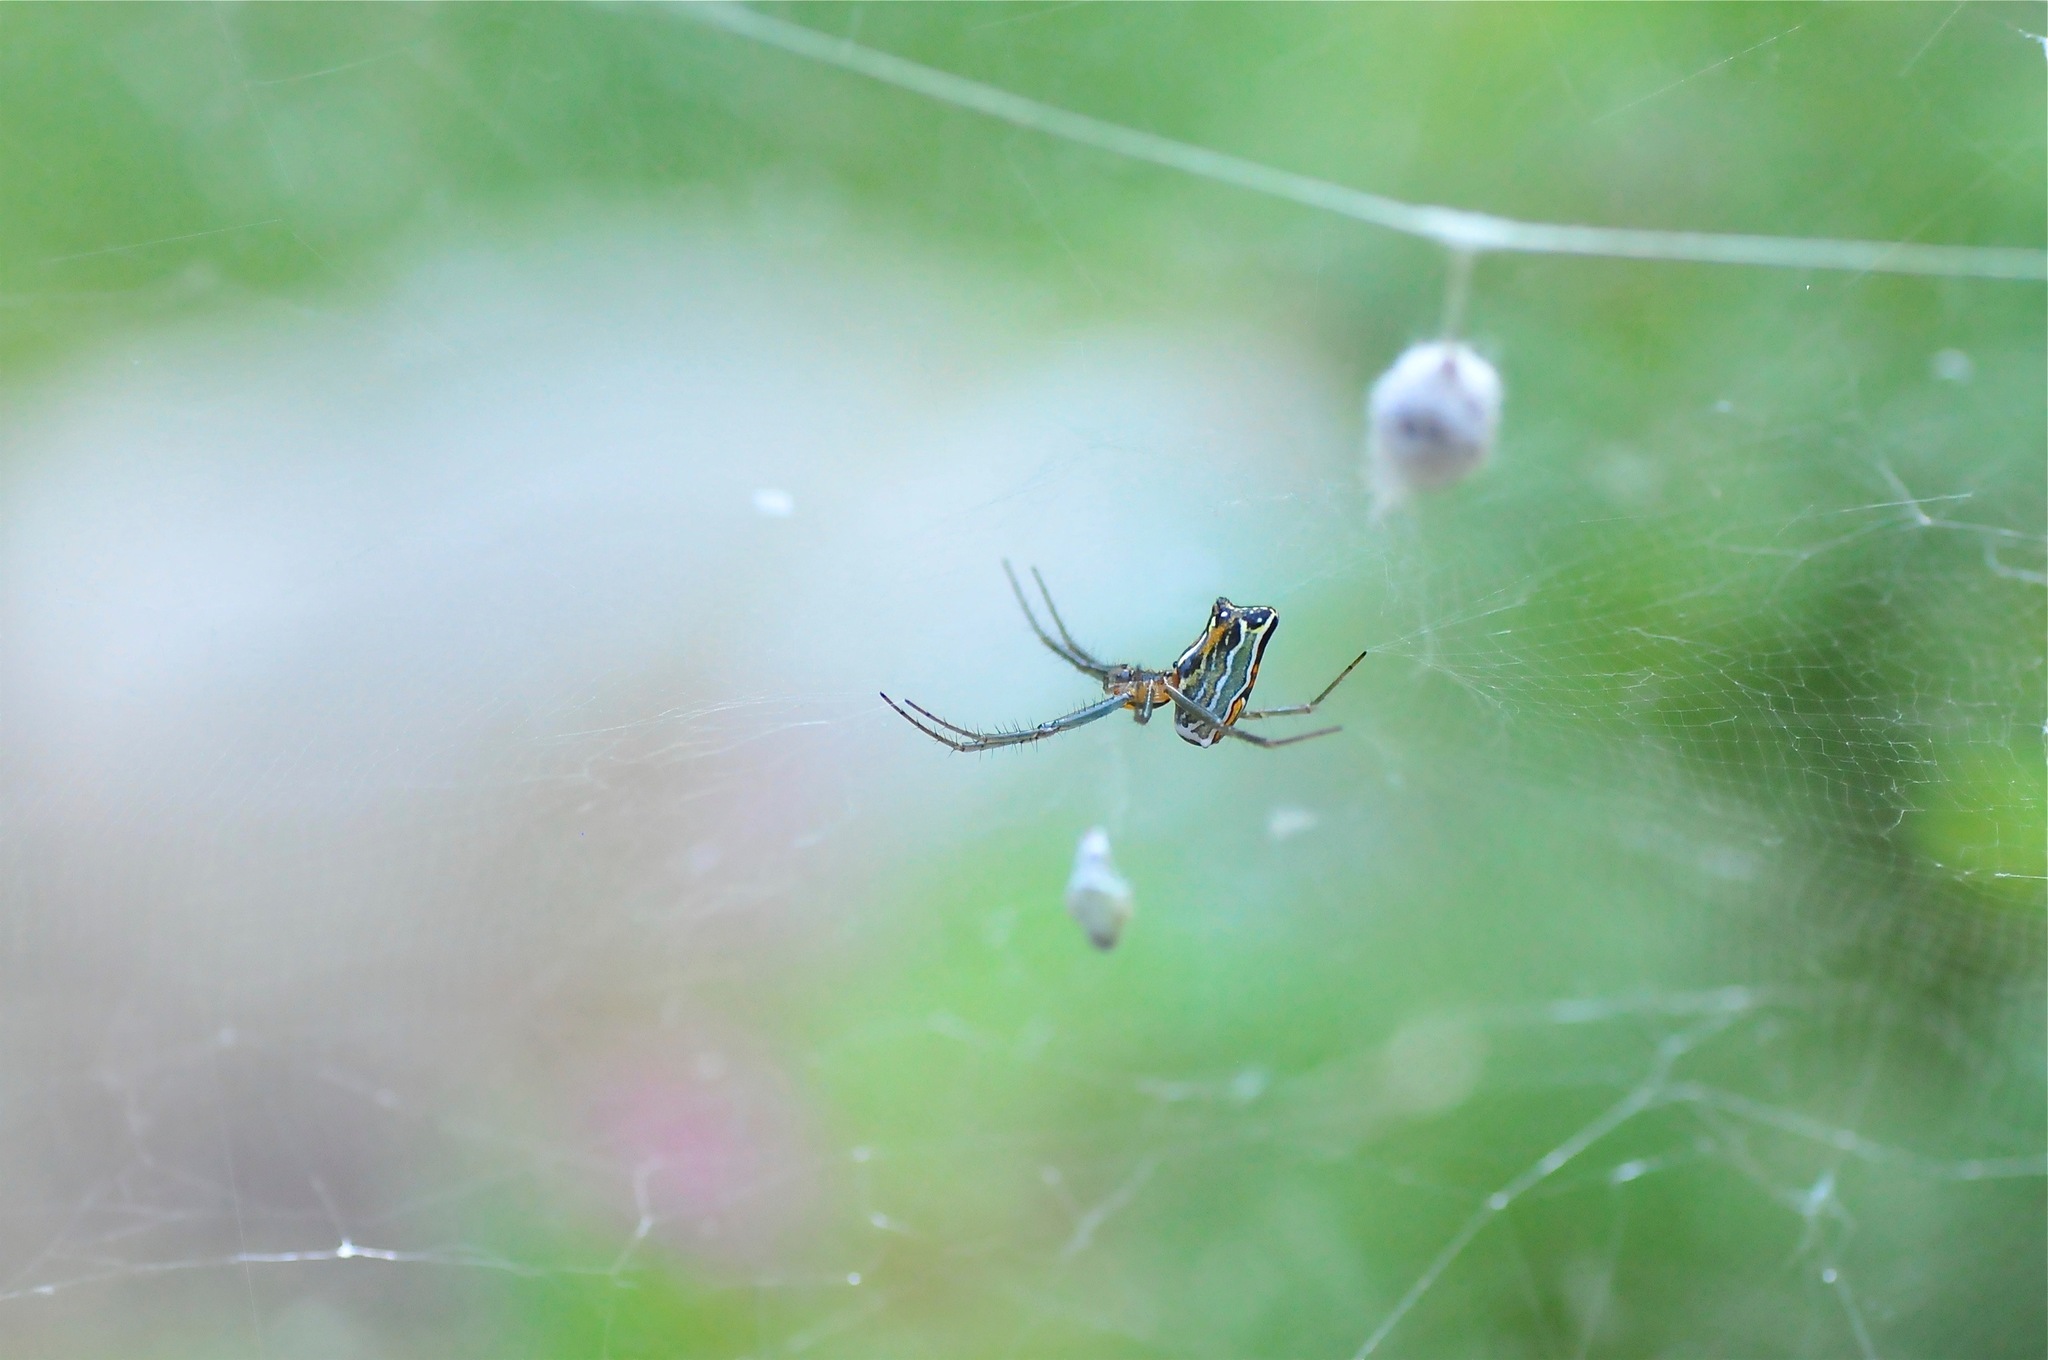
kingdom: Animalia
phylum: Arthropoda
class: Arachnida
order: Araneae
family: Araneidae
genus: Mecynogea
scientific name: Mecynogea lemniscata
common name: Orb weavers
